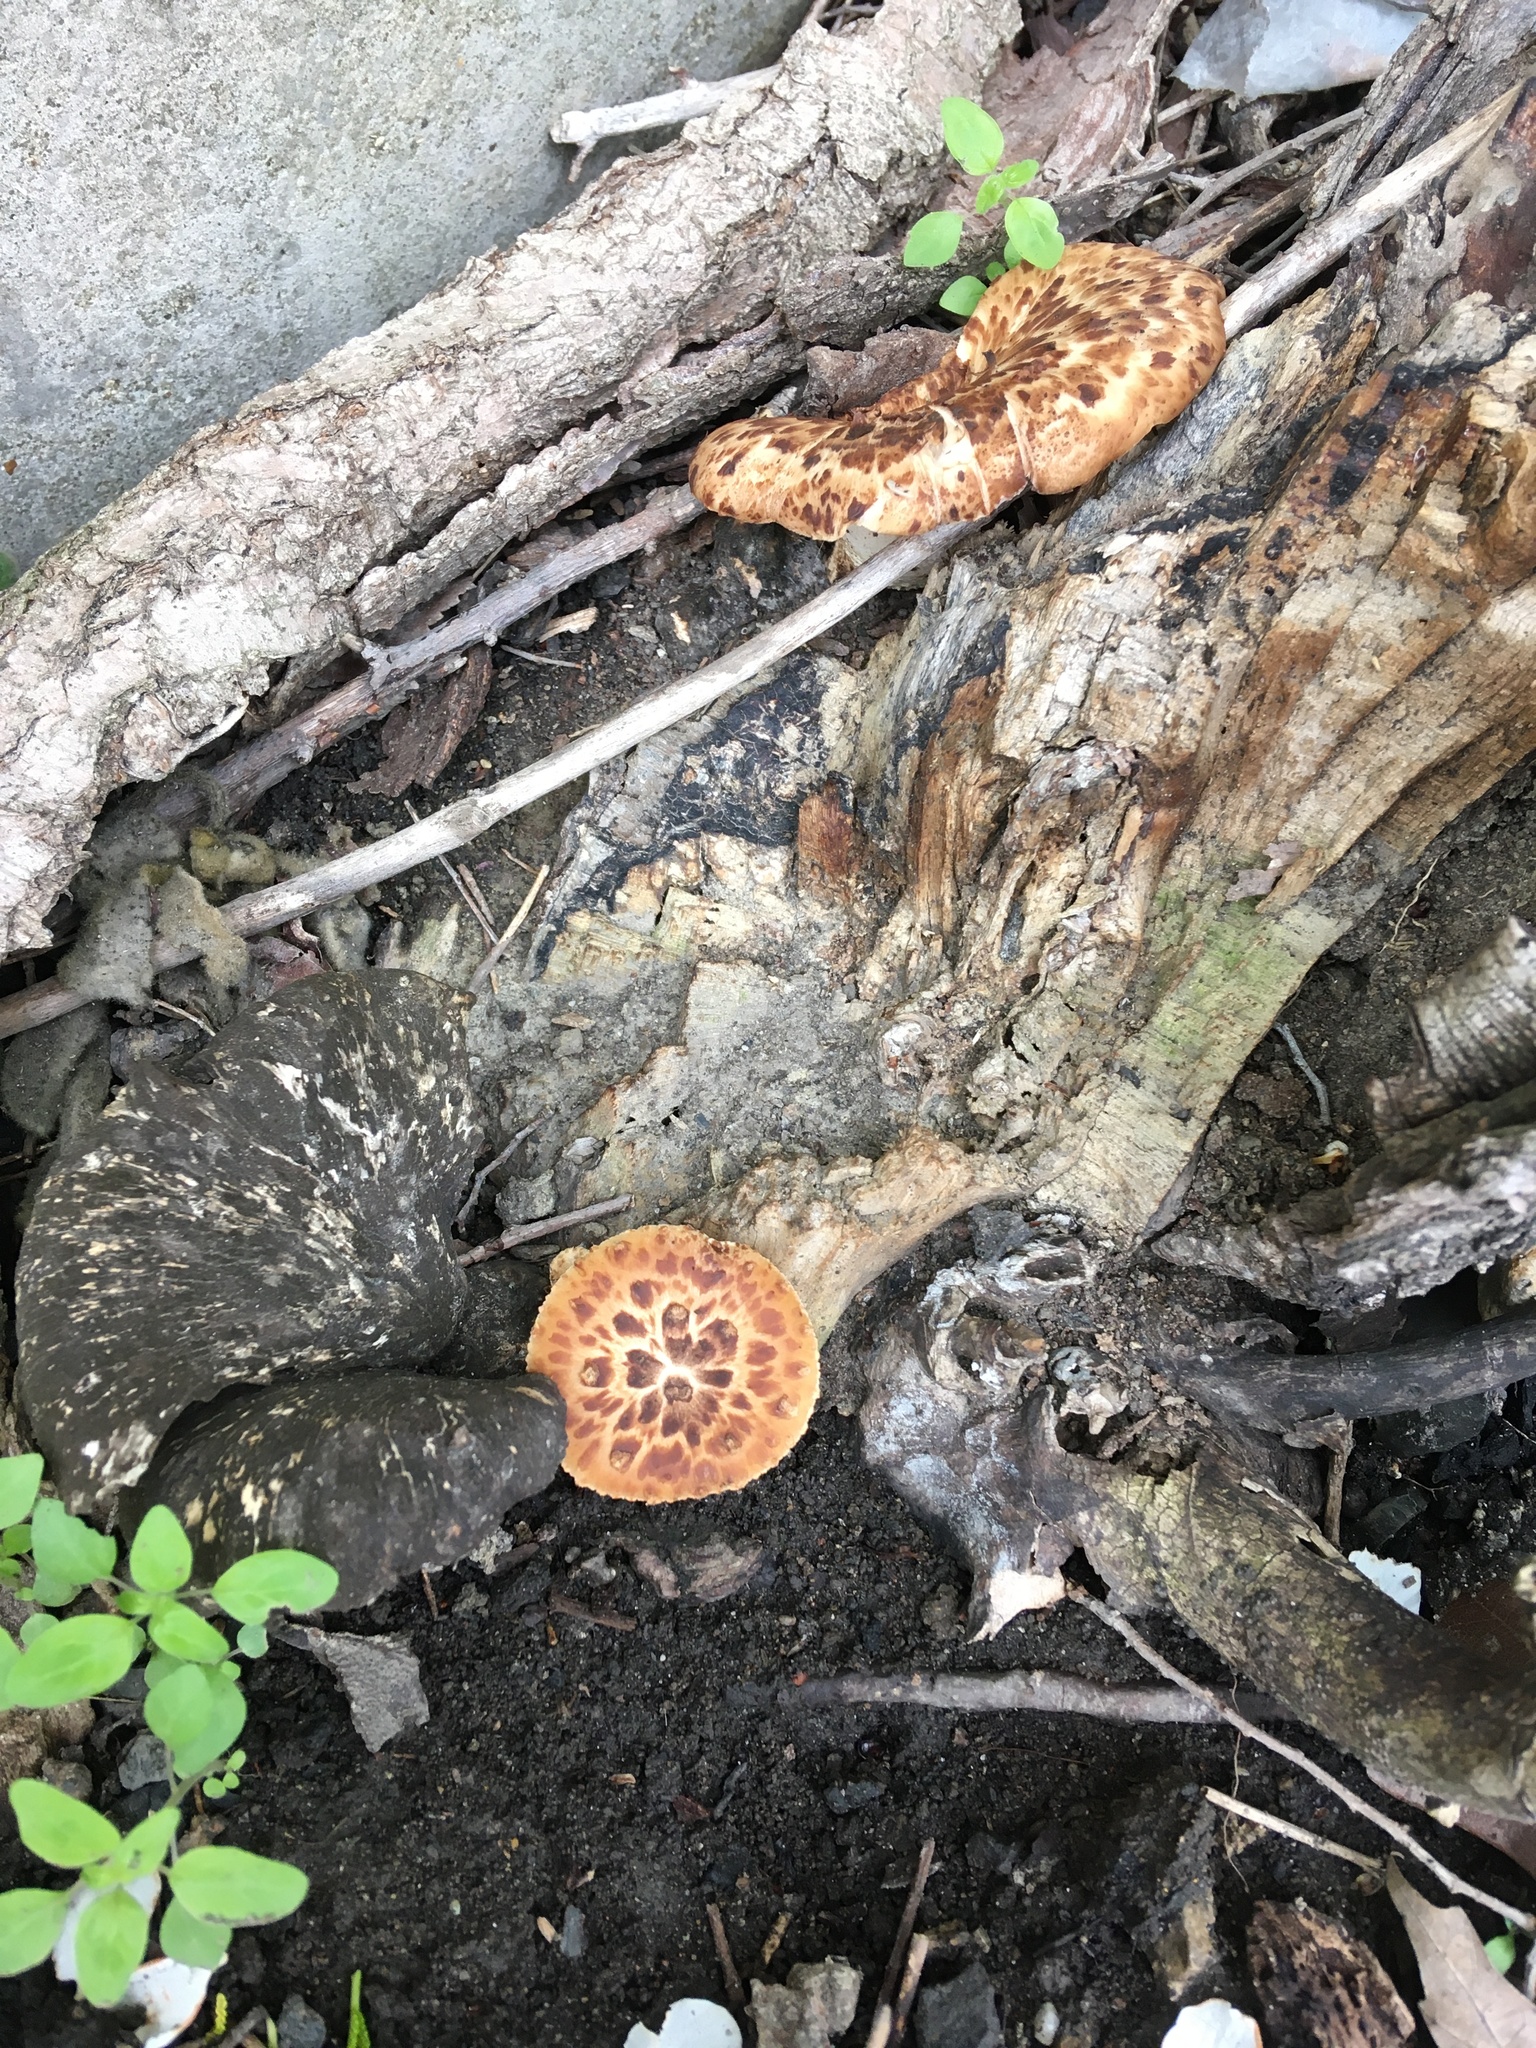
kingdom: Fungi
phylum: Basidiomycota
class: Agaricomycetes
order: Polyporales
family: Polyporaceae
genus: Cerioporus
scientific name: Cerioporus squamosus
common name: Dryad's saddle
